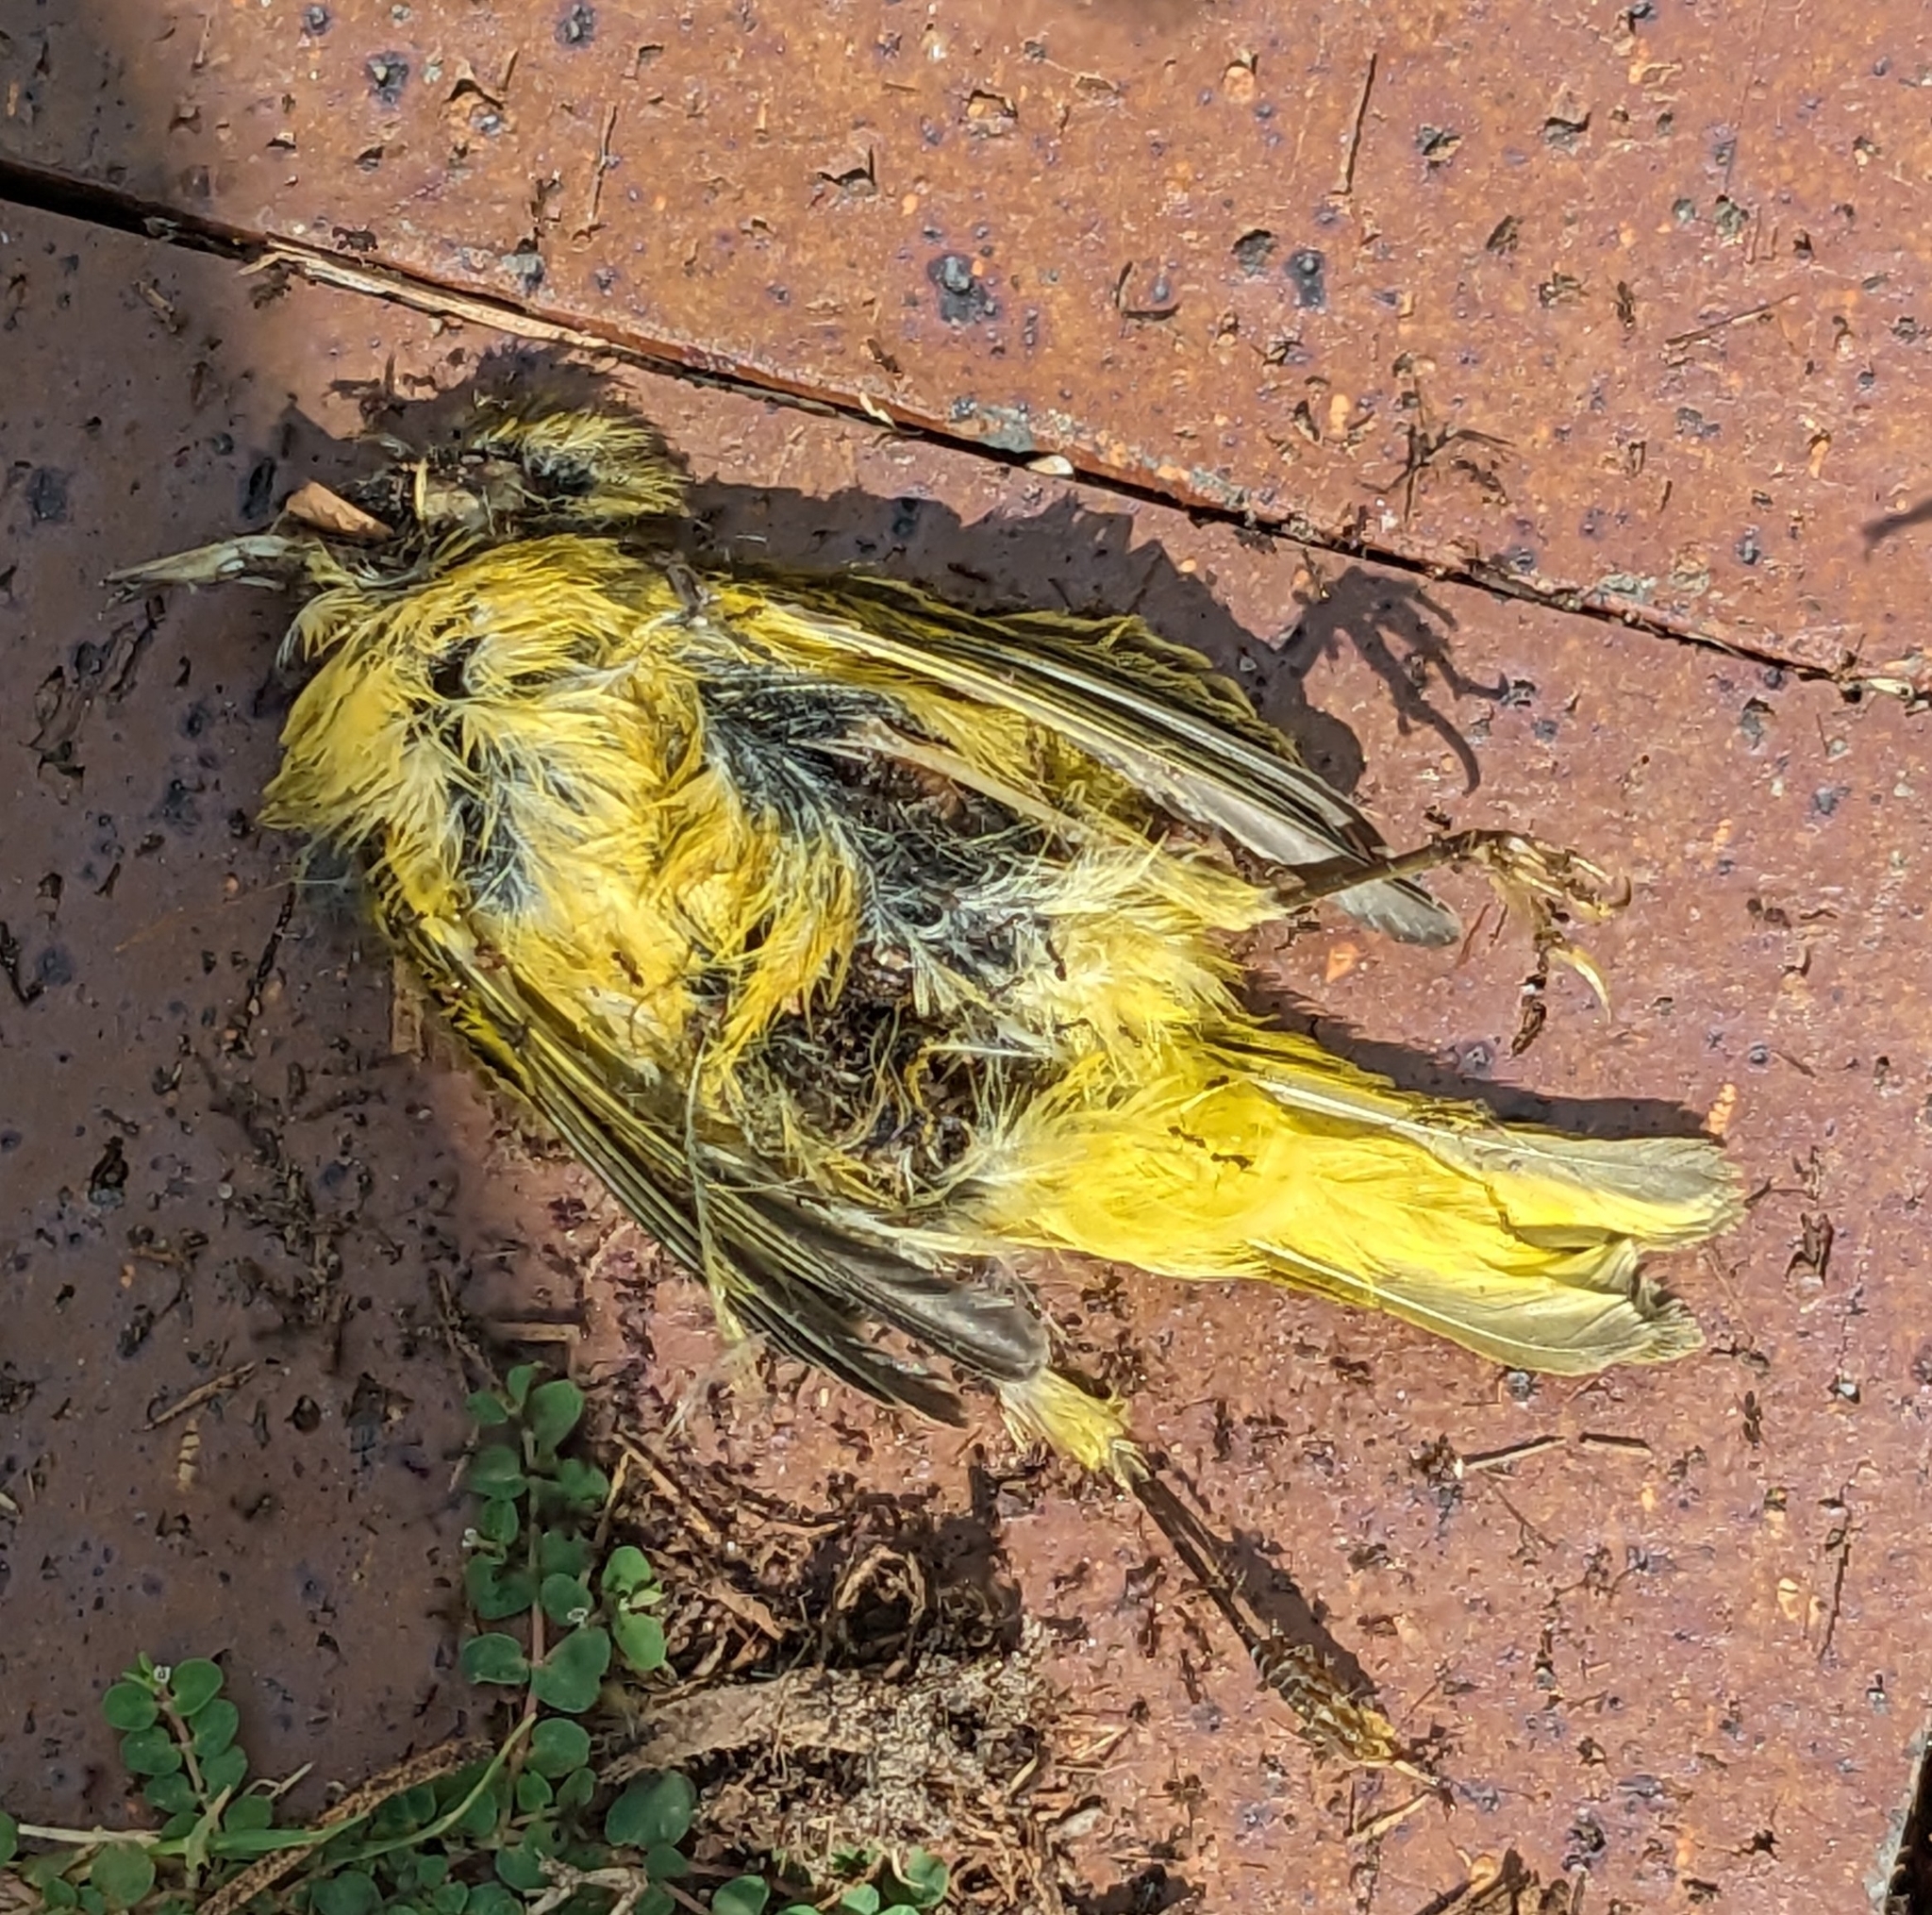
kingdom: Animalia
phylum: Chordata
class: Aves
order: Passeriformes
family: Parulidae
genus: Setophaga
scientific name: Setophaga petechia
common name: Yellow warbler
